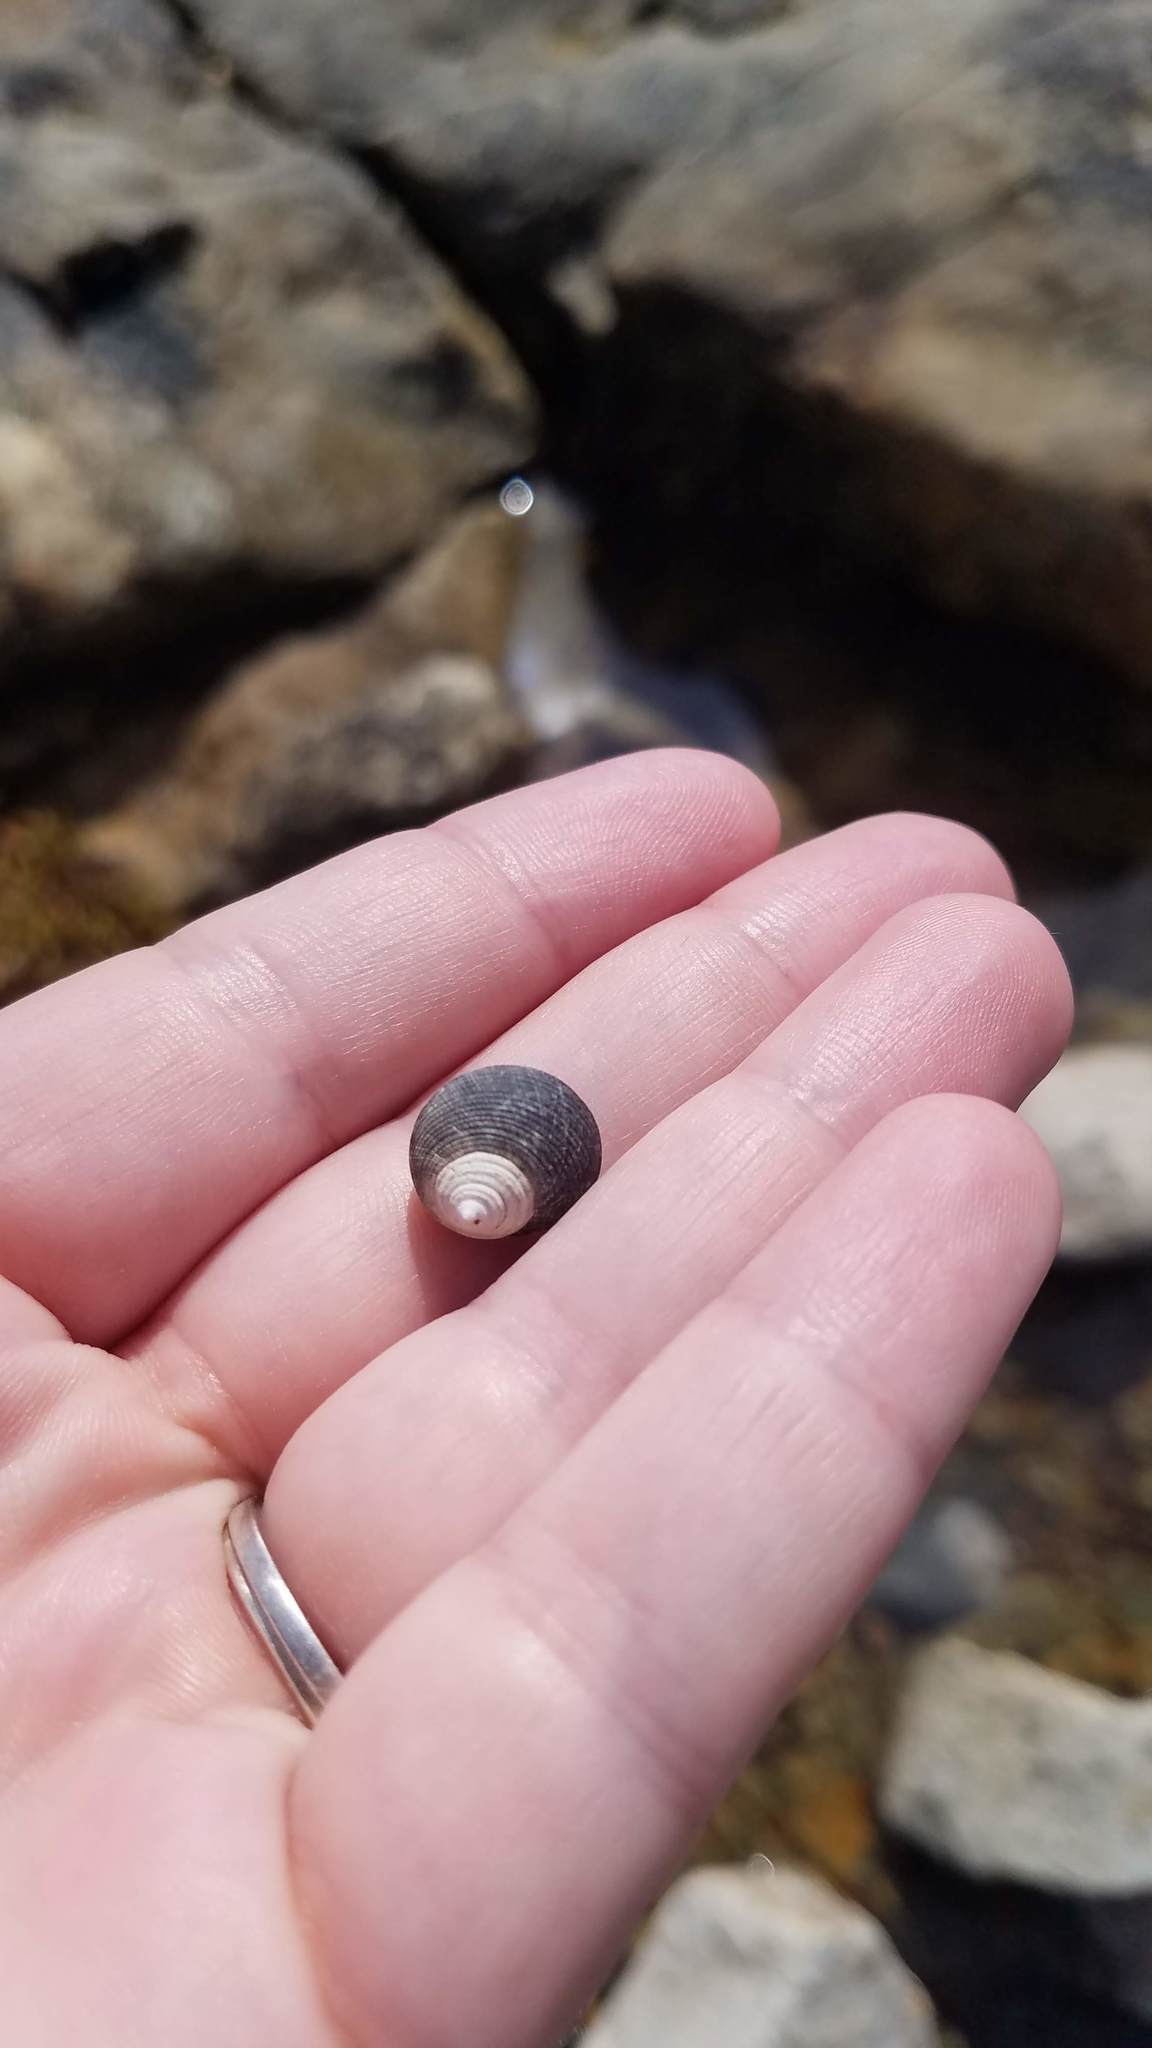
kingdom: Animalia
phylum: Mollusca
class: Gastropoda
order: Littorinimorpha
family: Littorinidae
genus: Littorina
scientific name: Littorina littorea
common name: Common periwinkle
